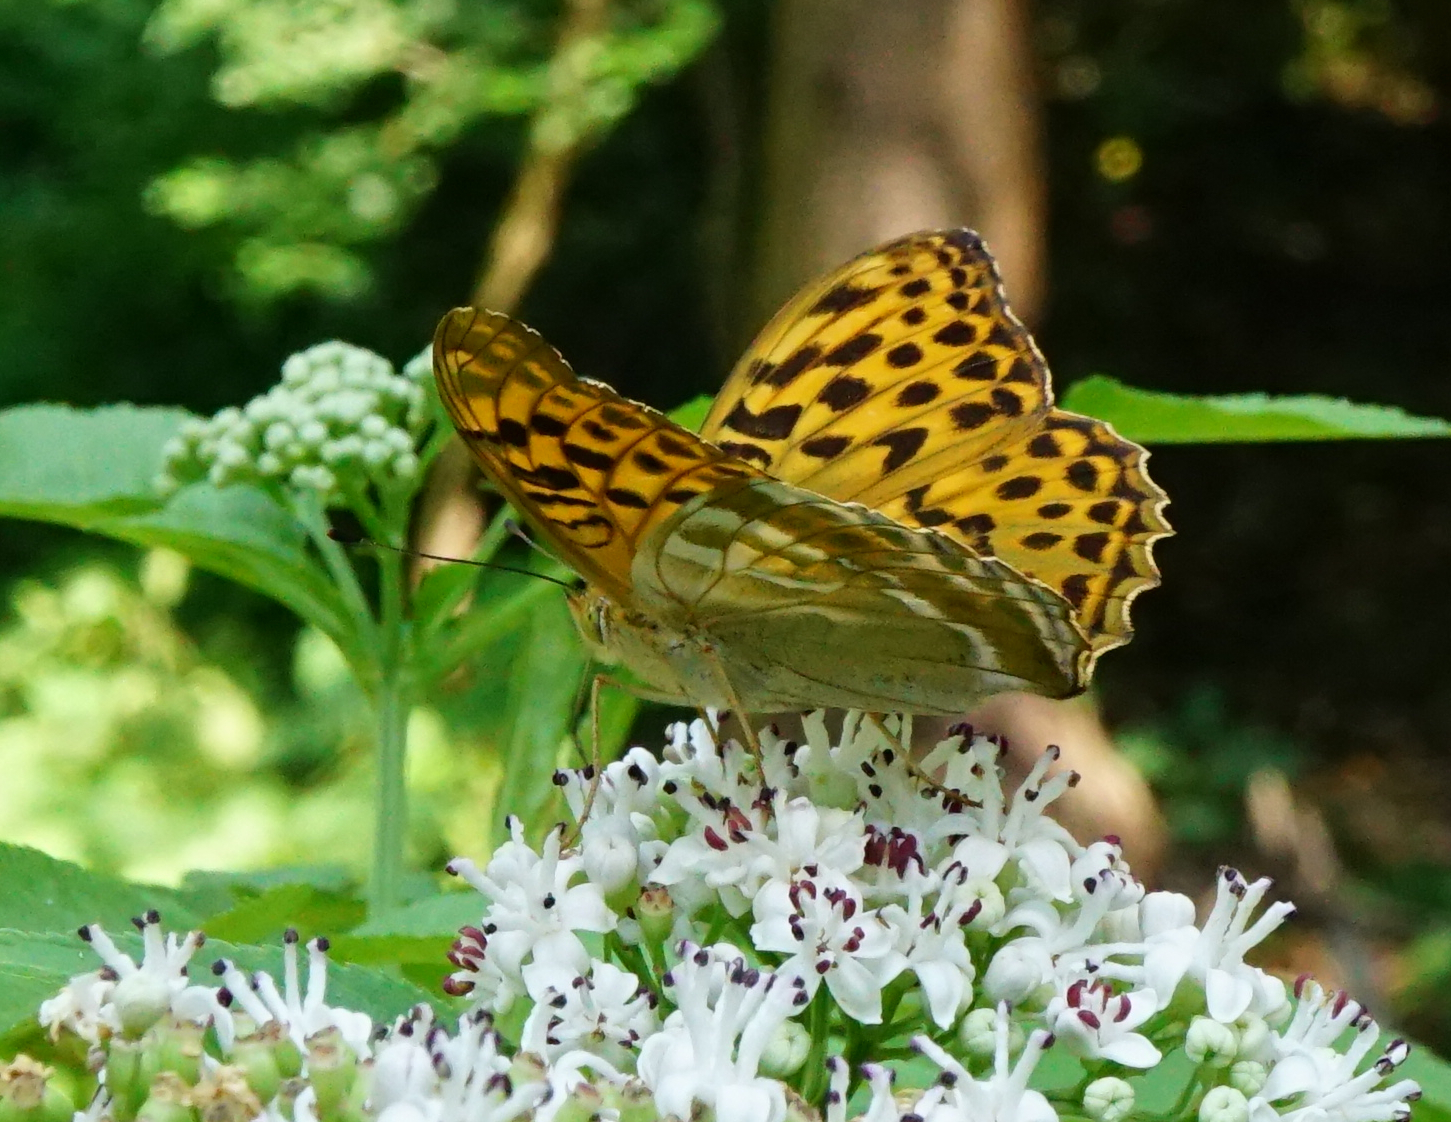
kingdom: Animalia
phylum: Arthropoda
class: Insecta
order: Lepidoptera
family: Nymphalidae
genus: Argynnis
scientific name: Argynnis paphia
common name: Silver-washed fritillary
